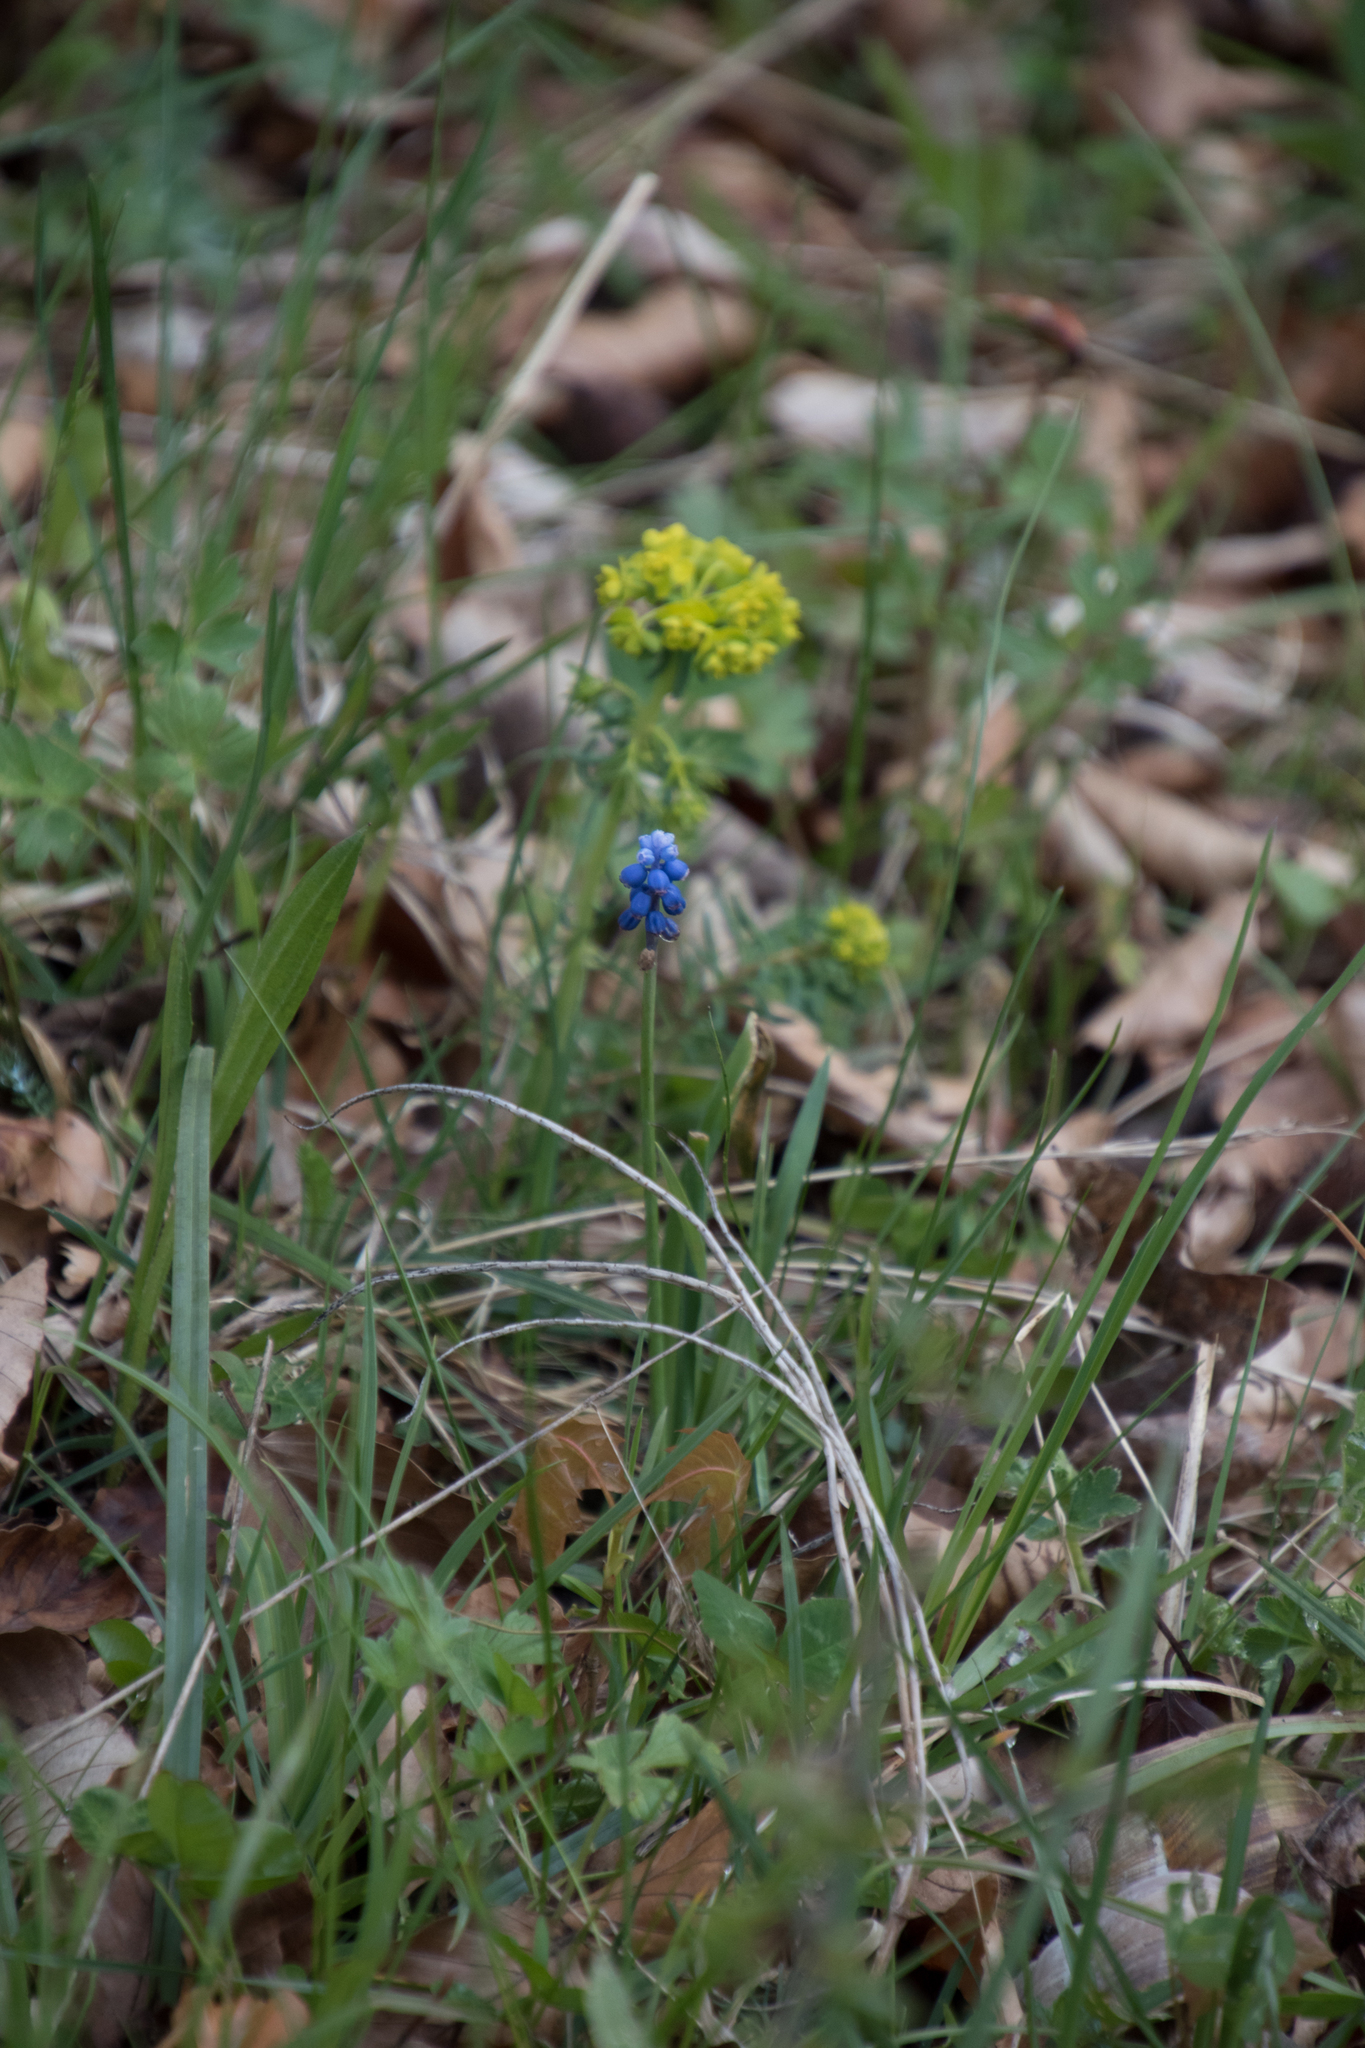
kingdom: Plantae
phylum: Tracheophyta
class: Liliopsida
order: Asparagales
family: Asparagaceae
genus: Muscari
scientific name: Muscari botryoides
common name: Compact grape-hyacinth
